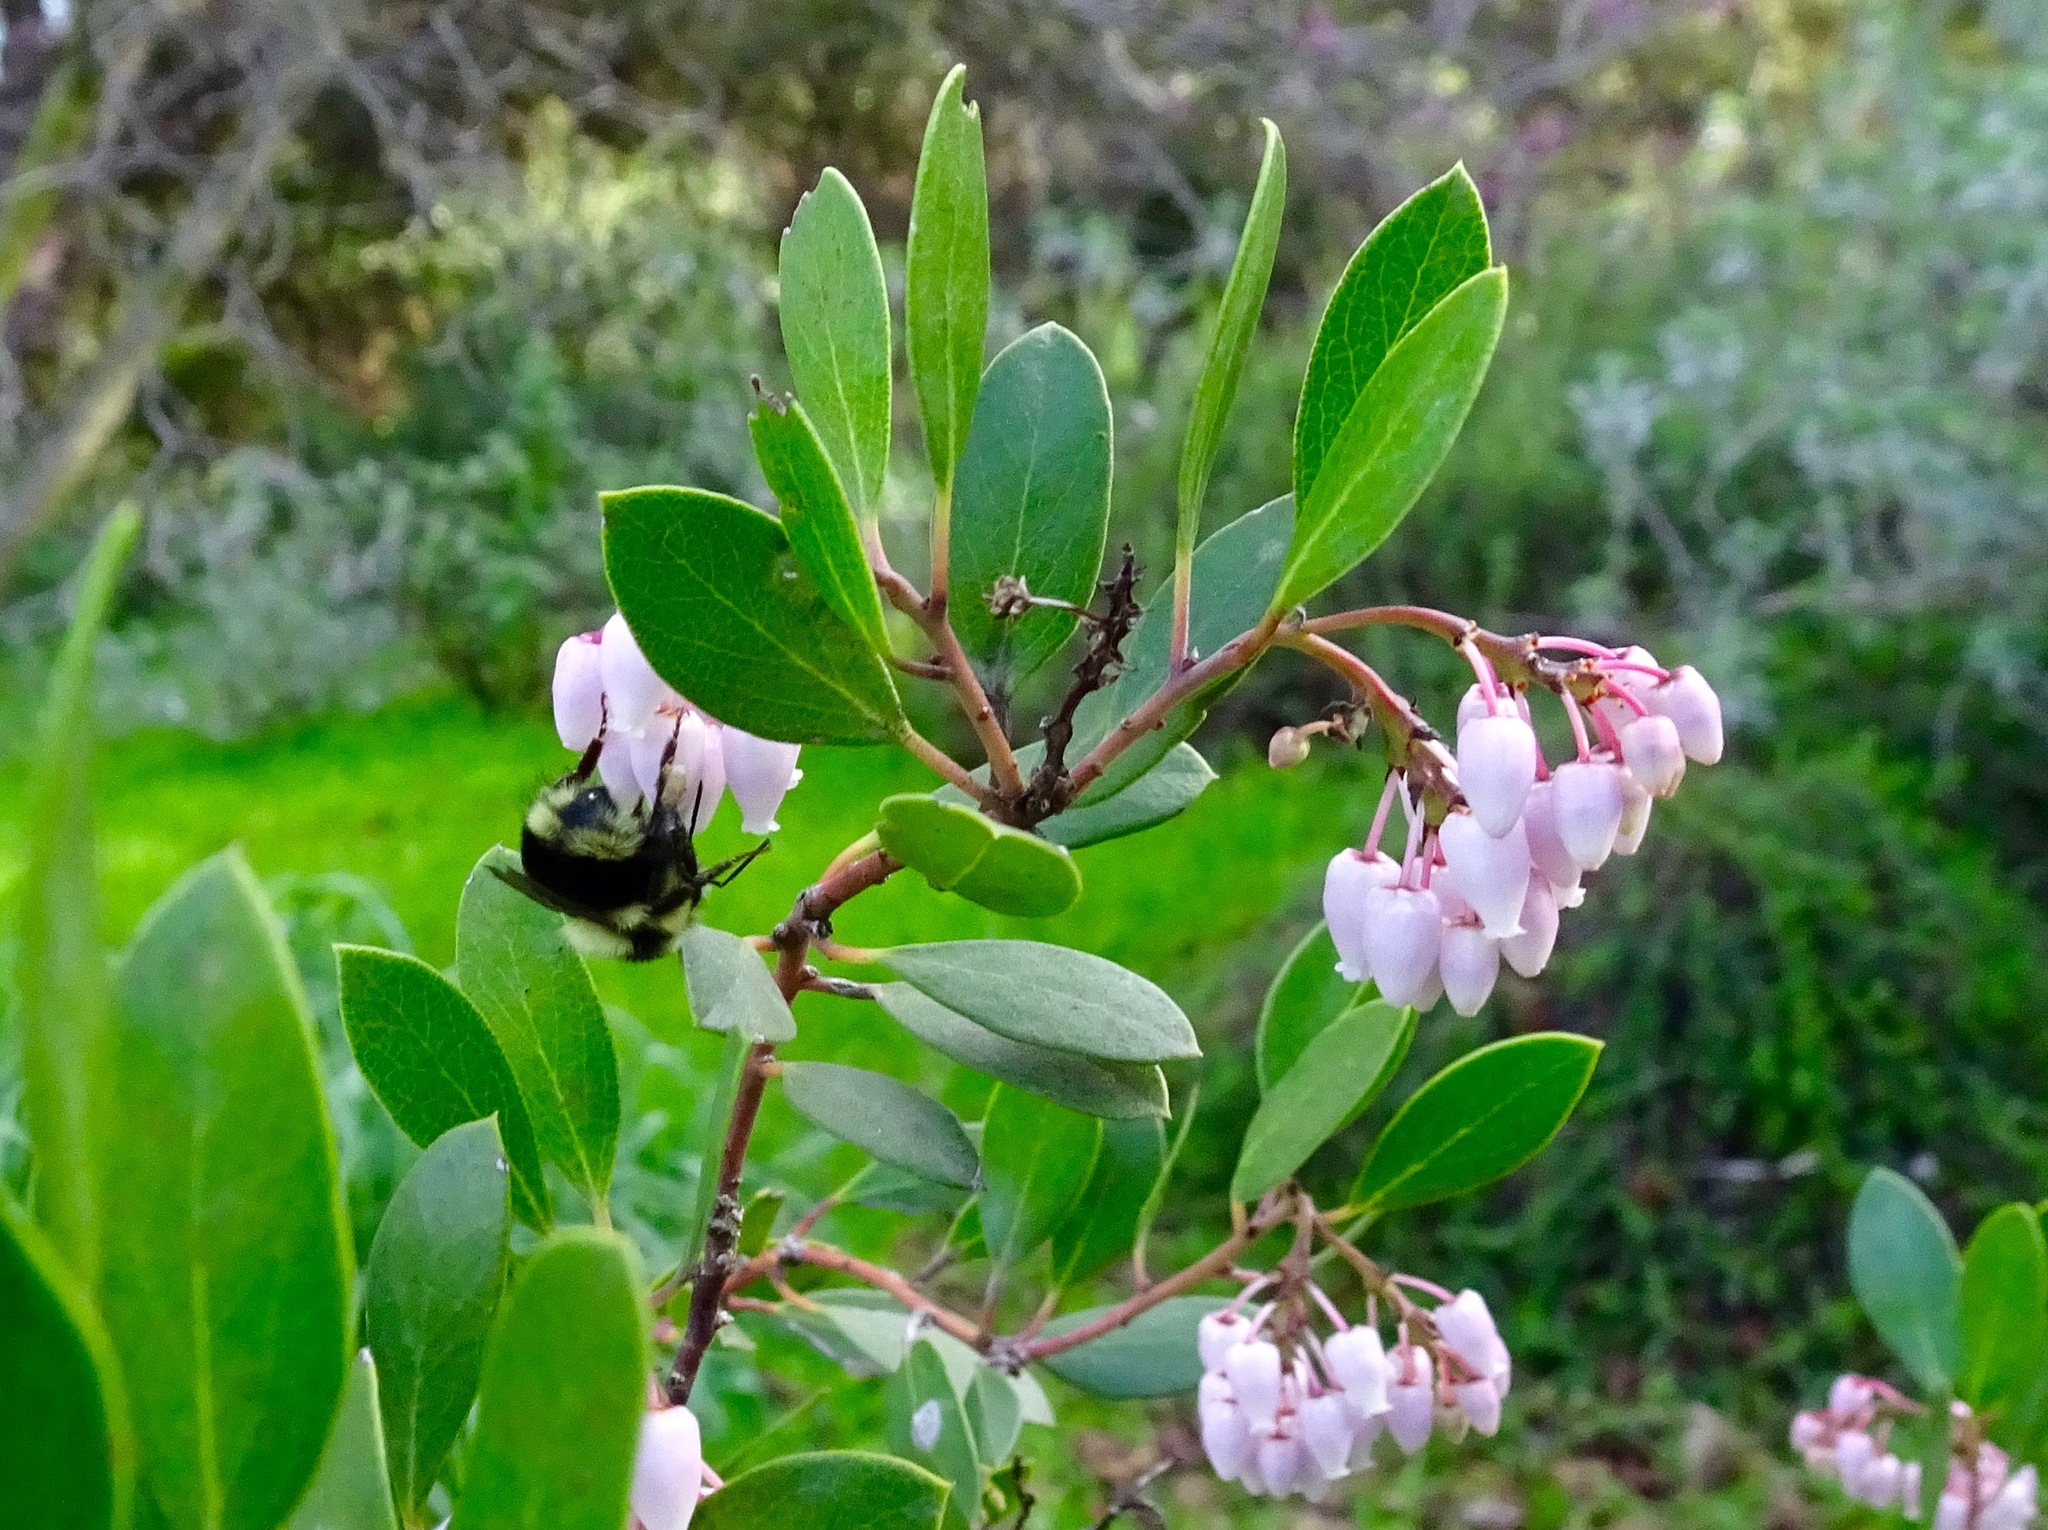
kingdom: Animalia
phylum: Arthropoda
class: Insecta
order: Hymenoptera
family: Apidae
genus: Bombus
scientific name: Bombus melanopygus
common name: Black tail bumble bee
